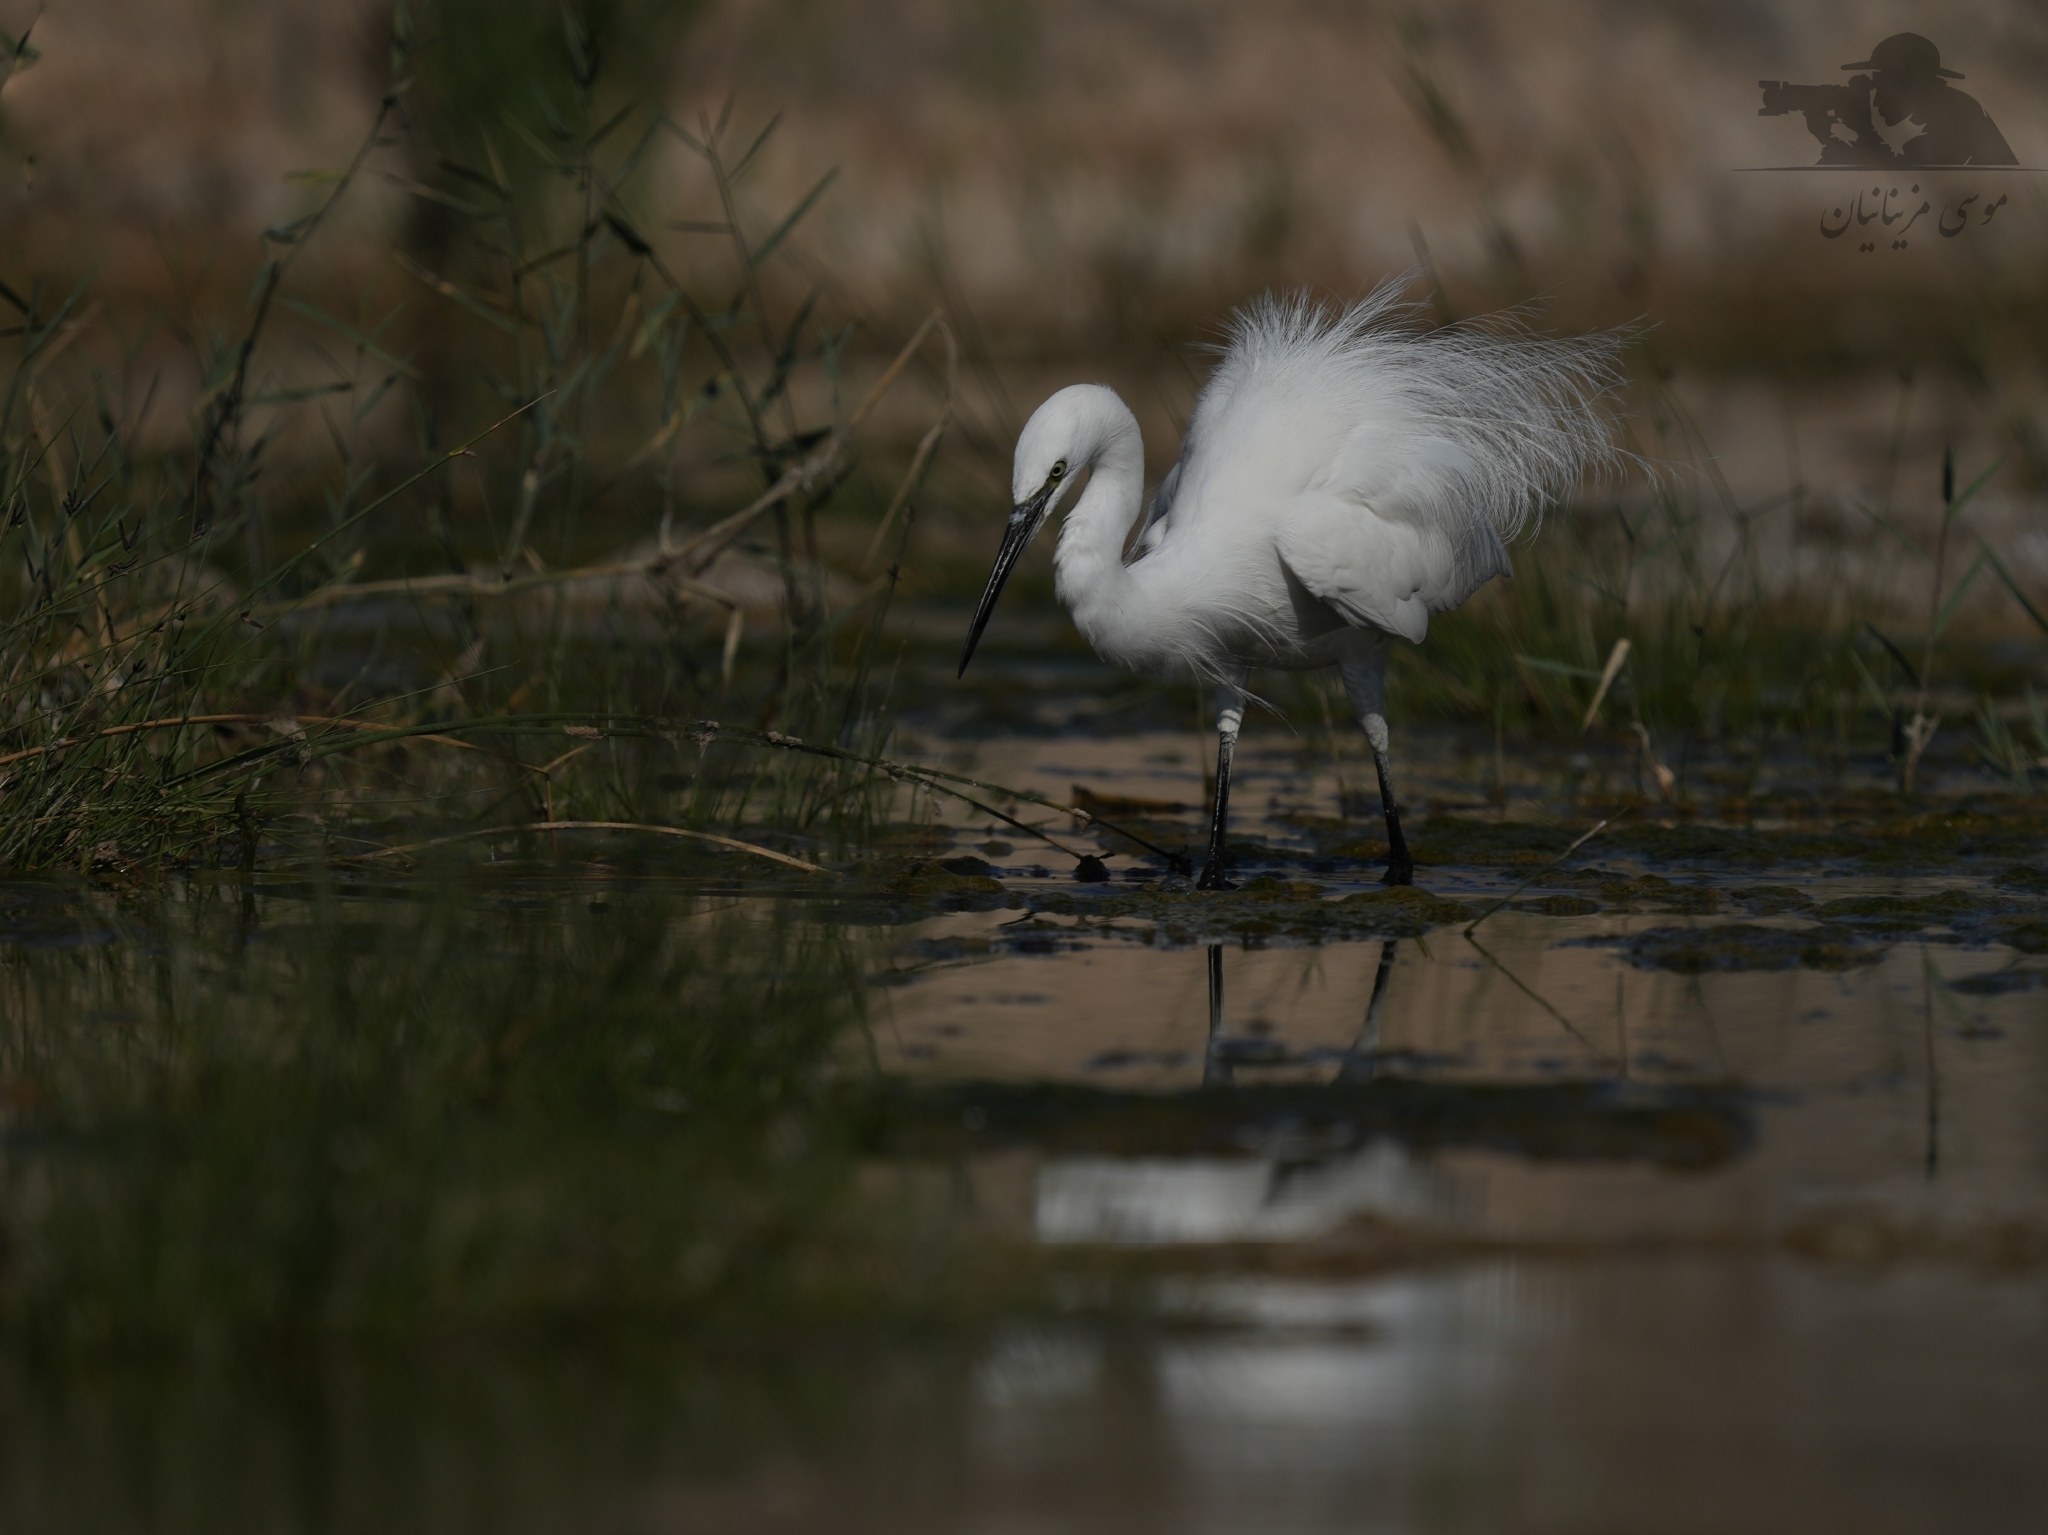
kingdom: Animalia
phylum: Chordata
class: Aves
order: Pelecaniformes
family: Ardeidae
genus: Egretta
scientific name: Egretta garzetta
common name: Little egret
